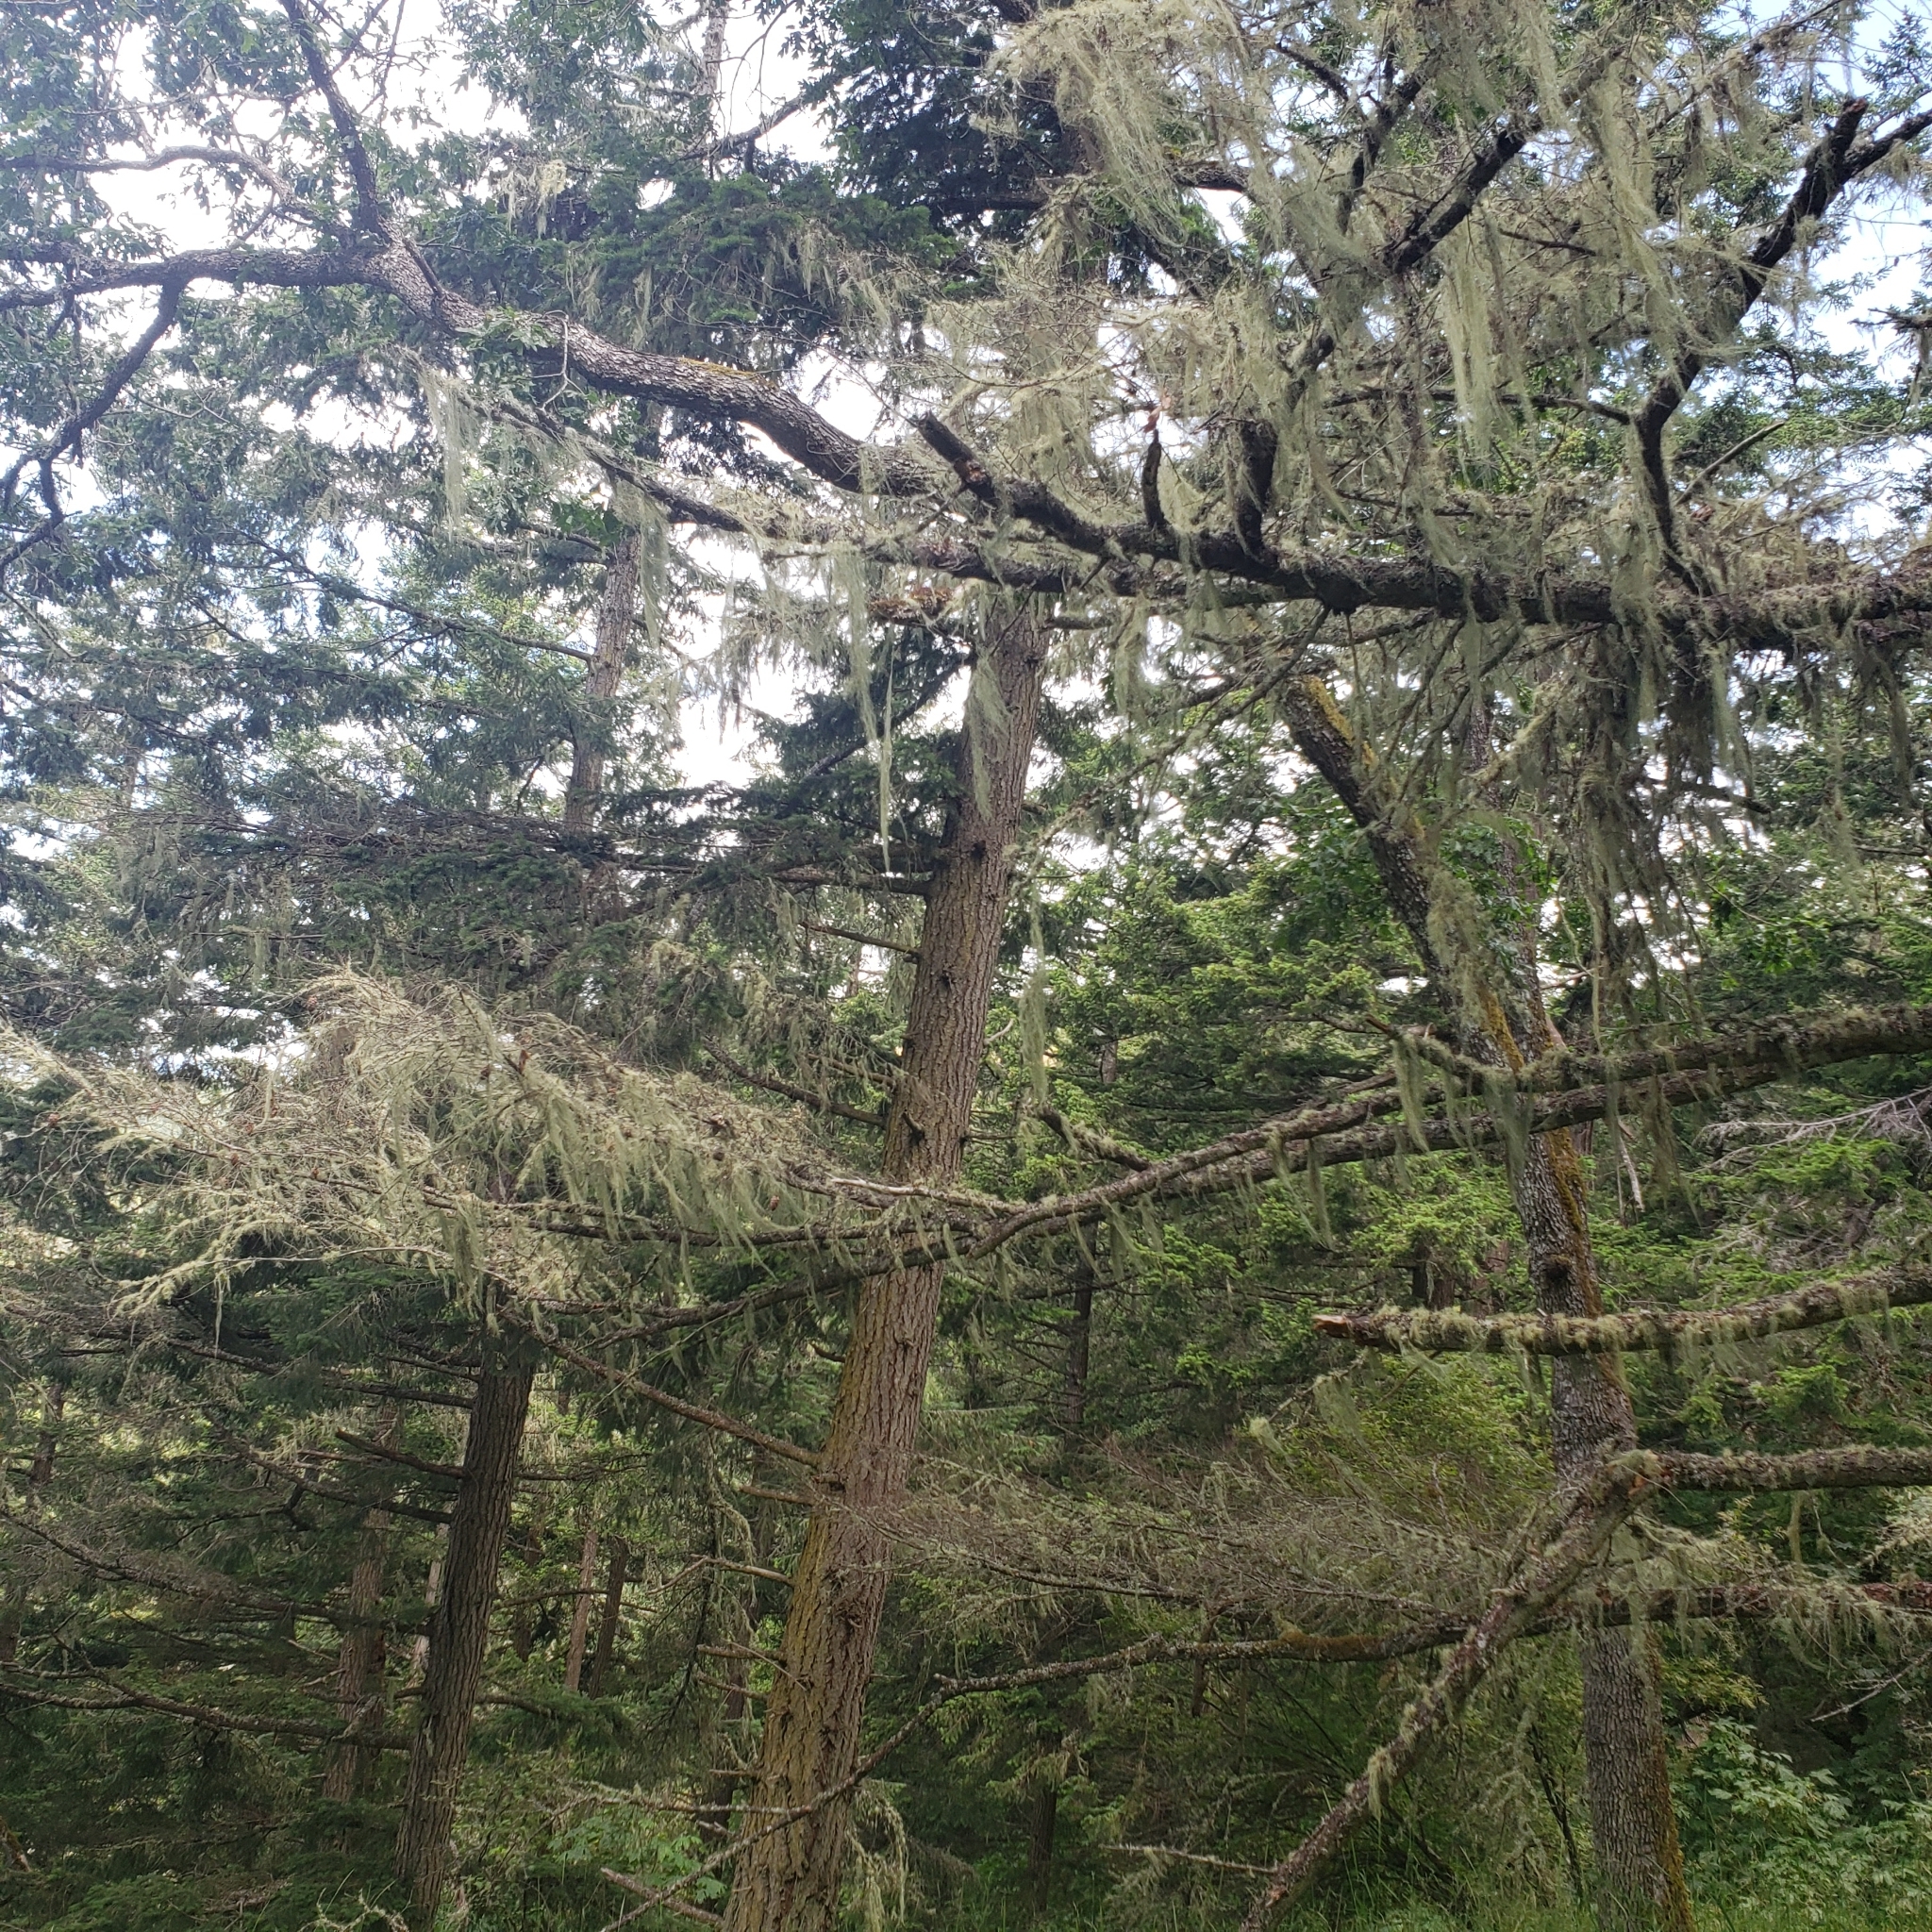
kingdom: Plantae
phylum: Tracheophyta
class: Magnoliopsida
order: Fagales
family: Fagaceae
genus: Quercus
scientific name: Quercus garryana
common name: Garry oak
